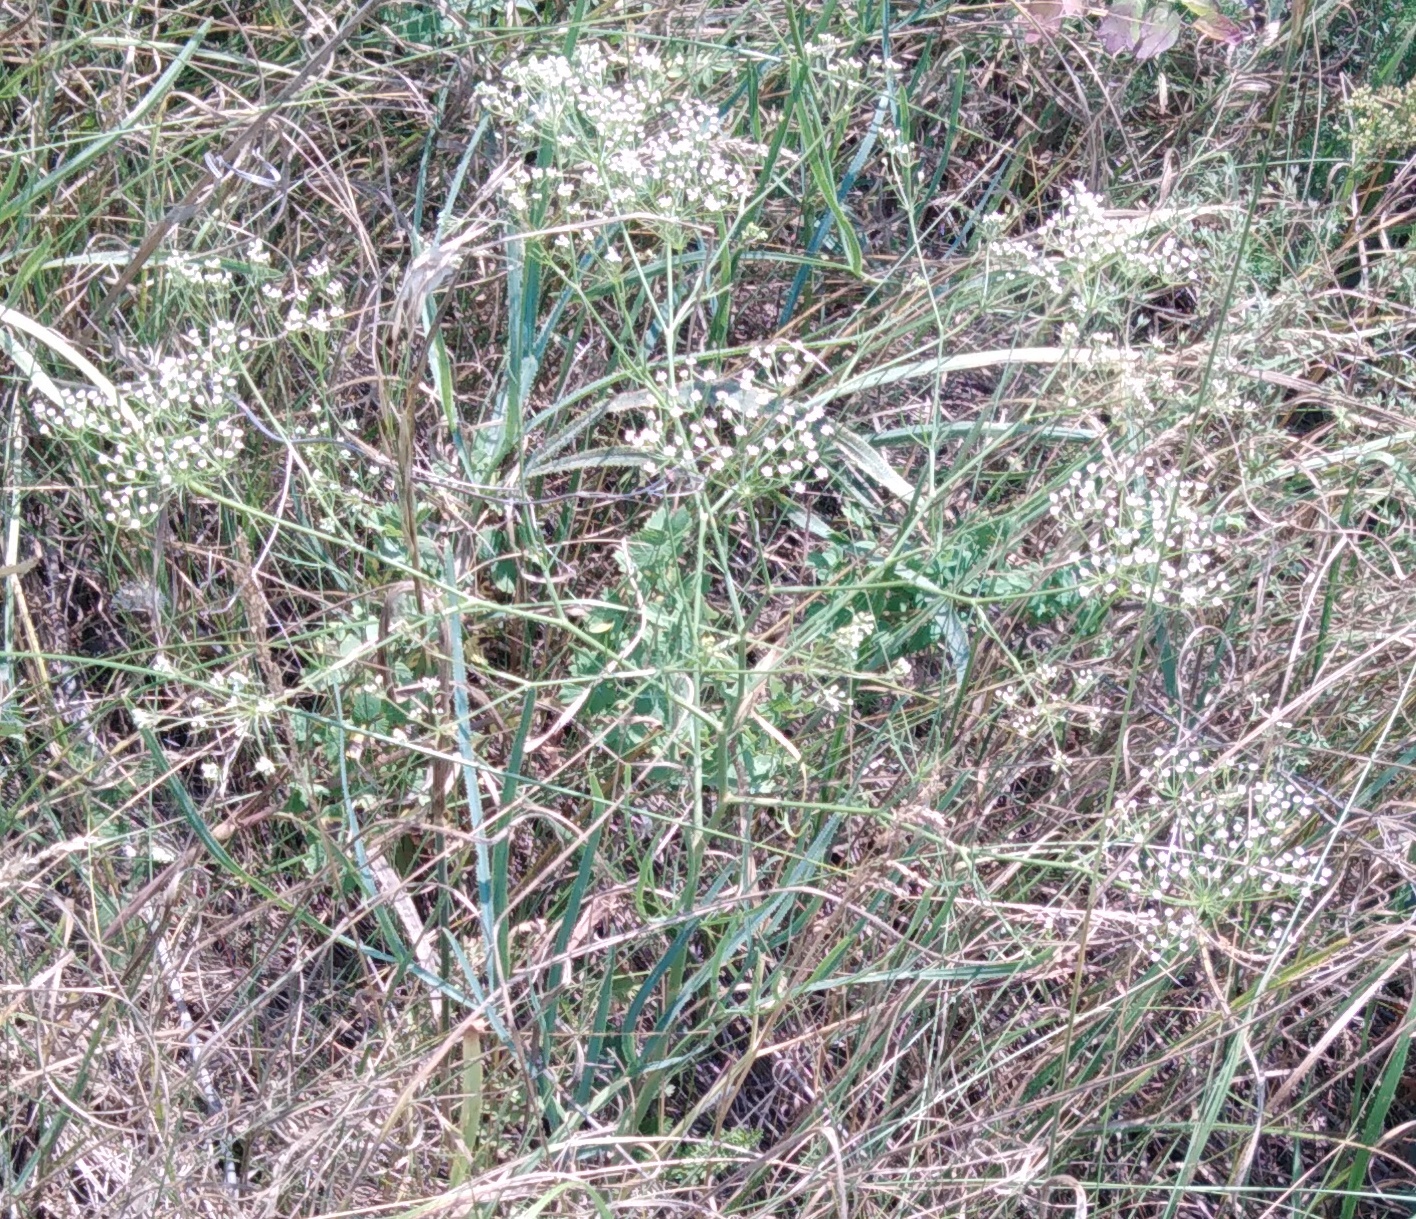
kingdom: Plantae
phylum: Tracheophyta
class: Magnoliopsida
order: Apiales
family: Apiaceae
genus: Falcaria
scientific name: Falcaria vulgaris
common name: Longleaf
